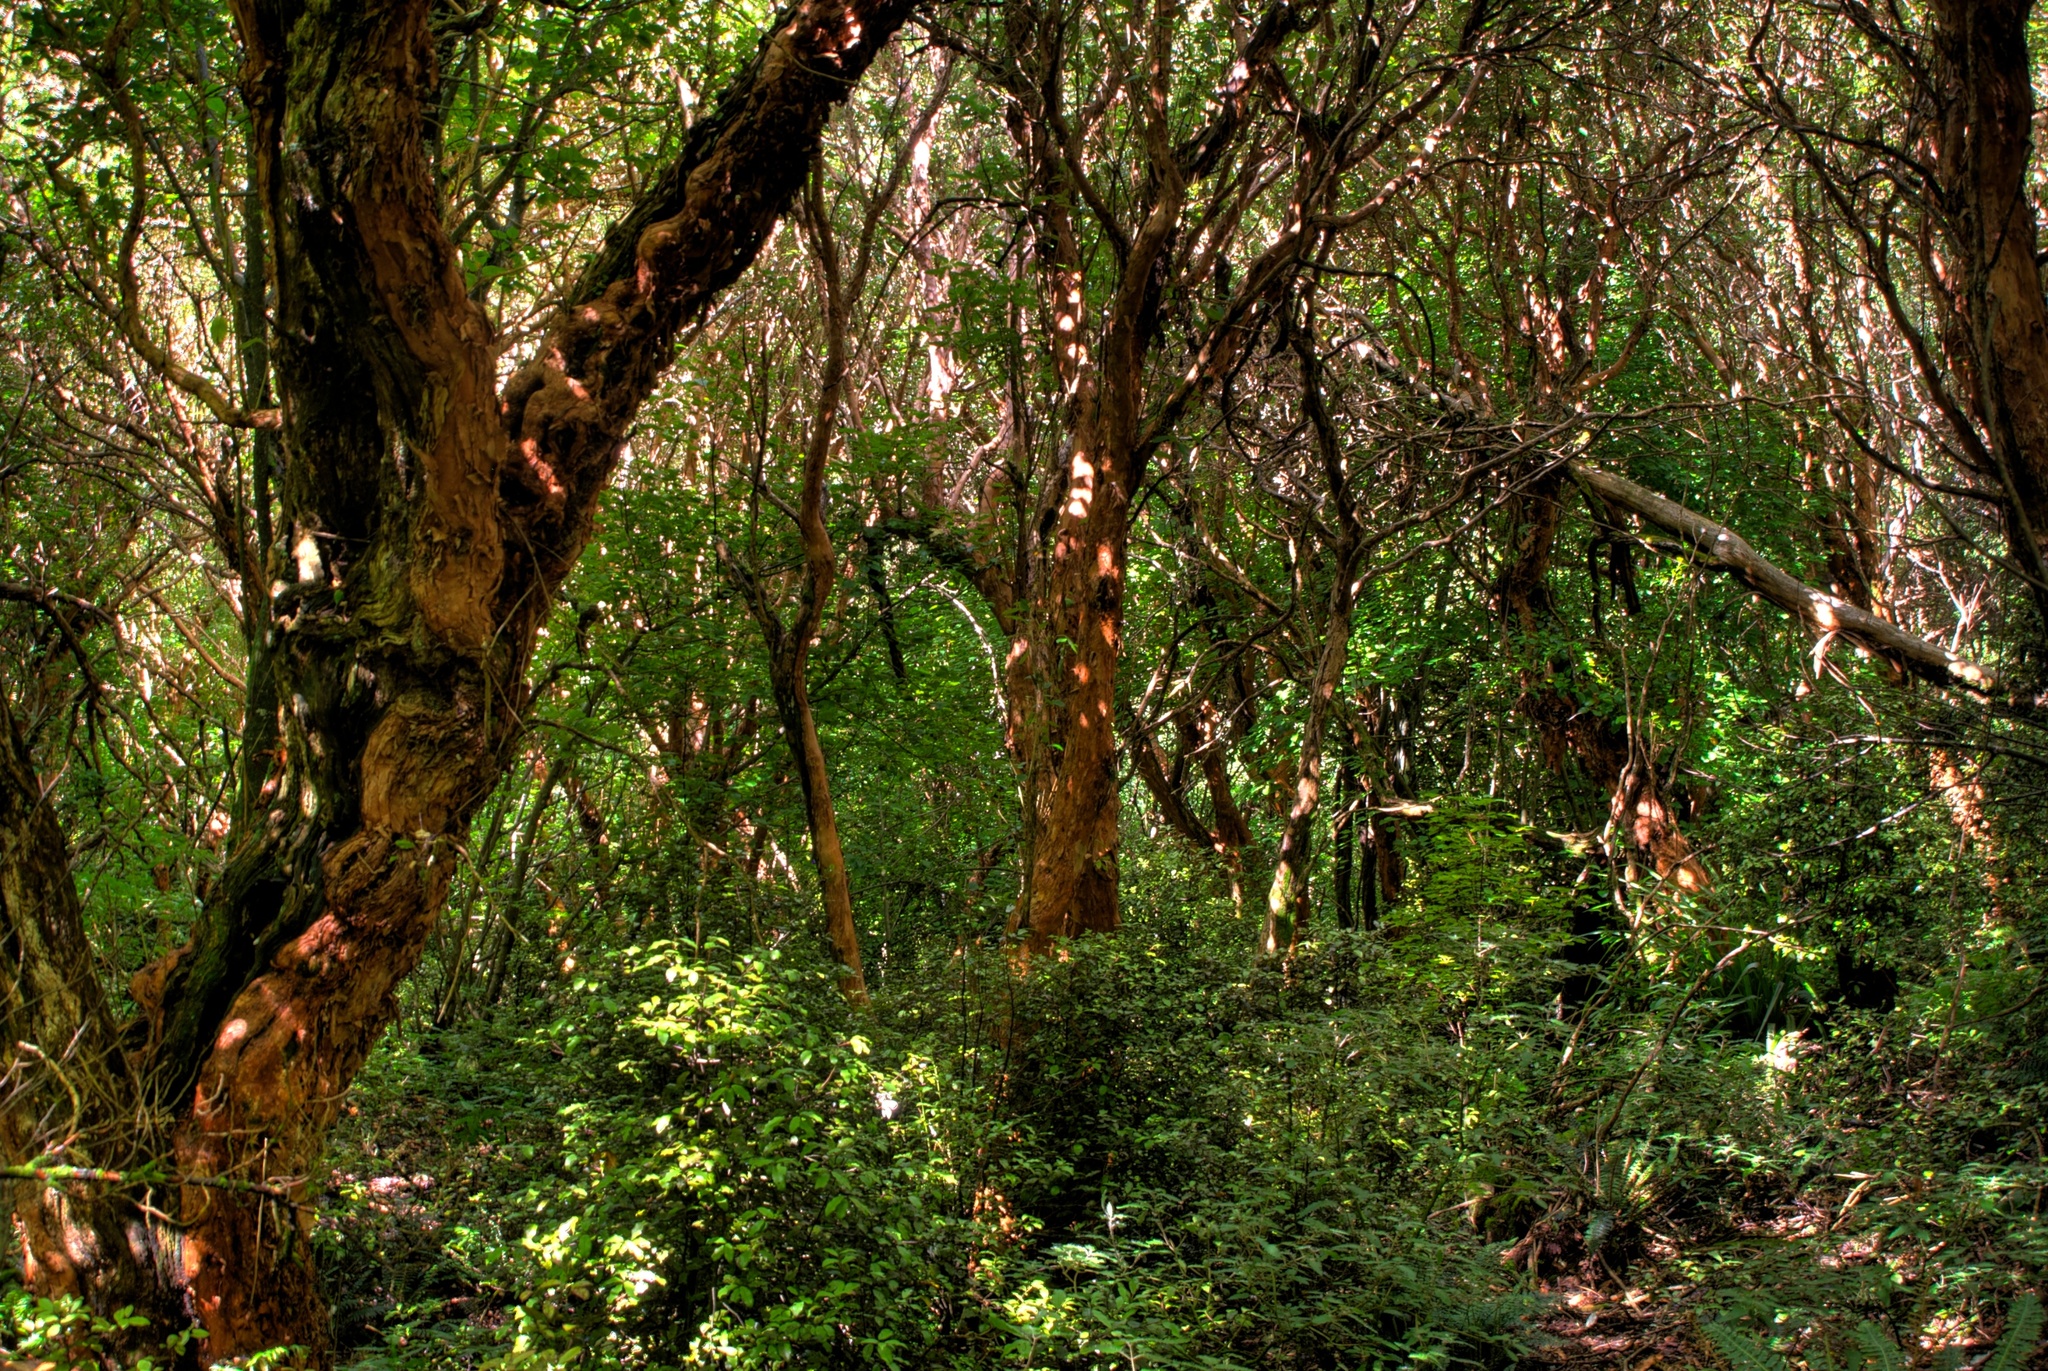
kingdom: Plantae
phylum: Tracheophyta
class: Magnoliopsida
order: Myrtales
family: Onagraceae
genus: Fuchsia
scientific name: Fuchsia excorticata
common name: Tree fuchsia
